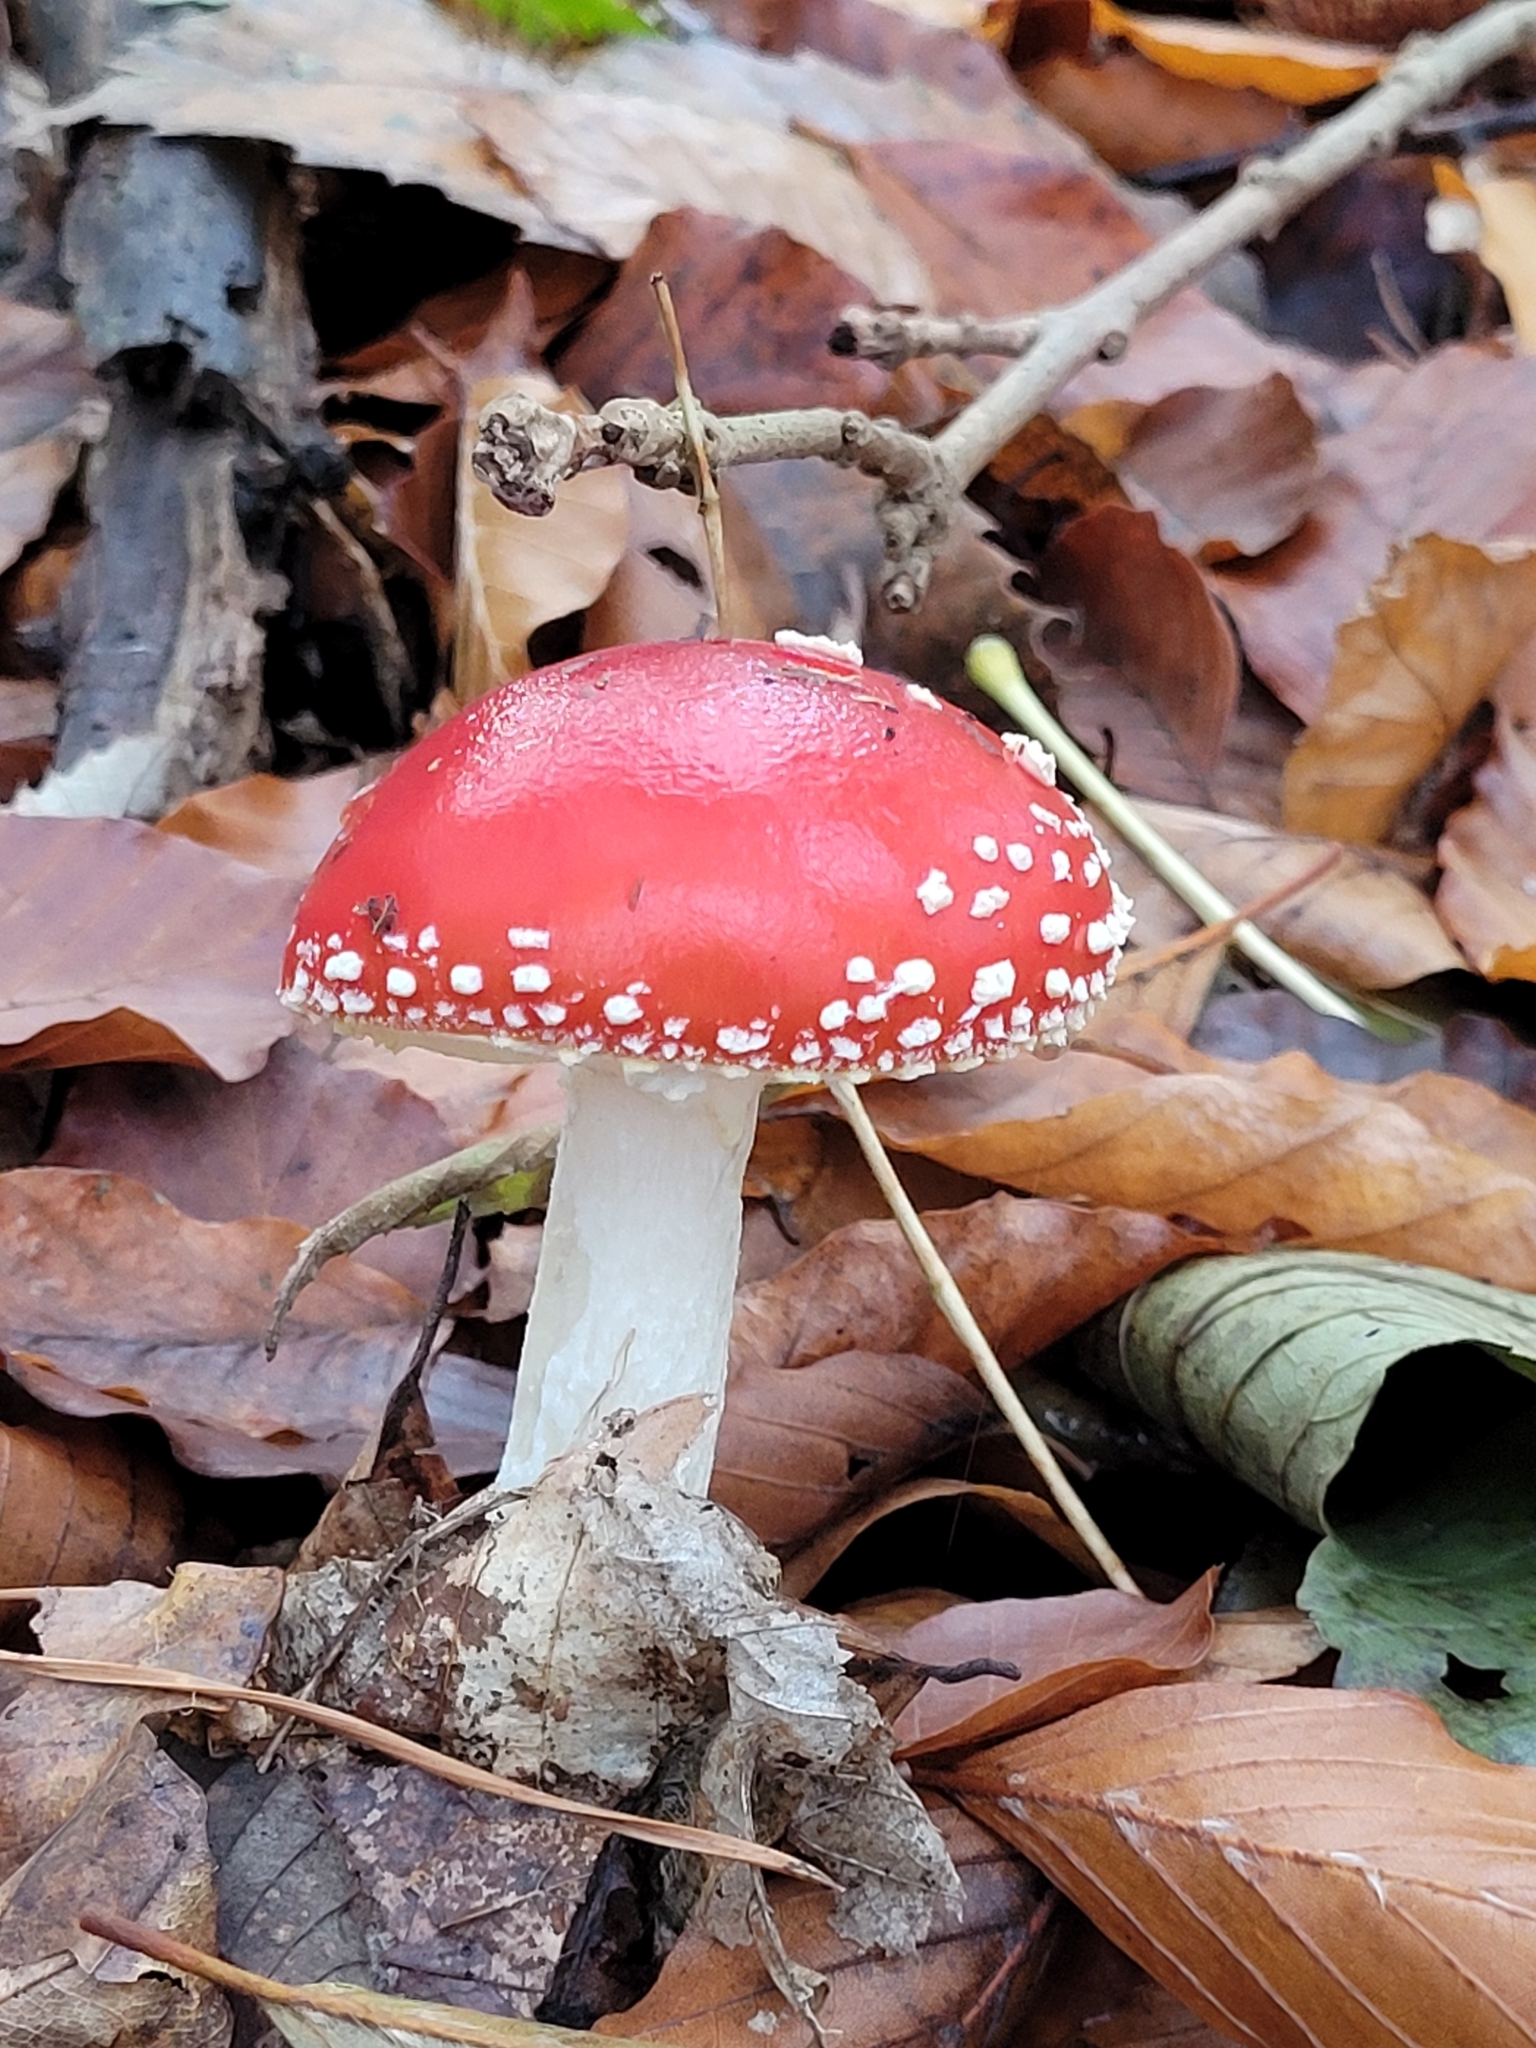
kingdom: Fungi
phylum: Basidiomycota
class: Agaricomycetes
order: Agaricales
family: Amanitaceae
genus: Amanita
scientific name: Amanita muscaria
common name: Fly agaric
